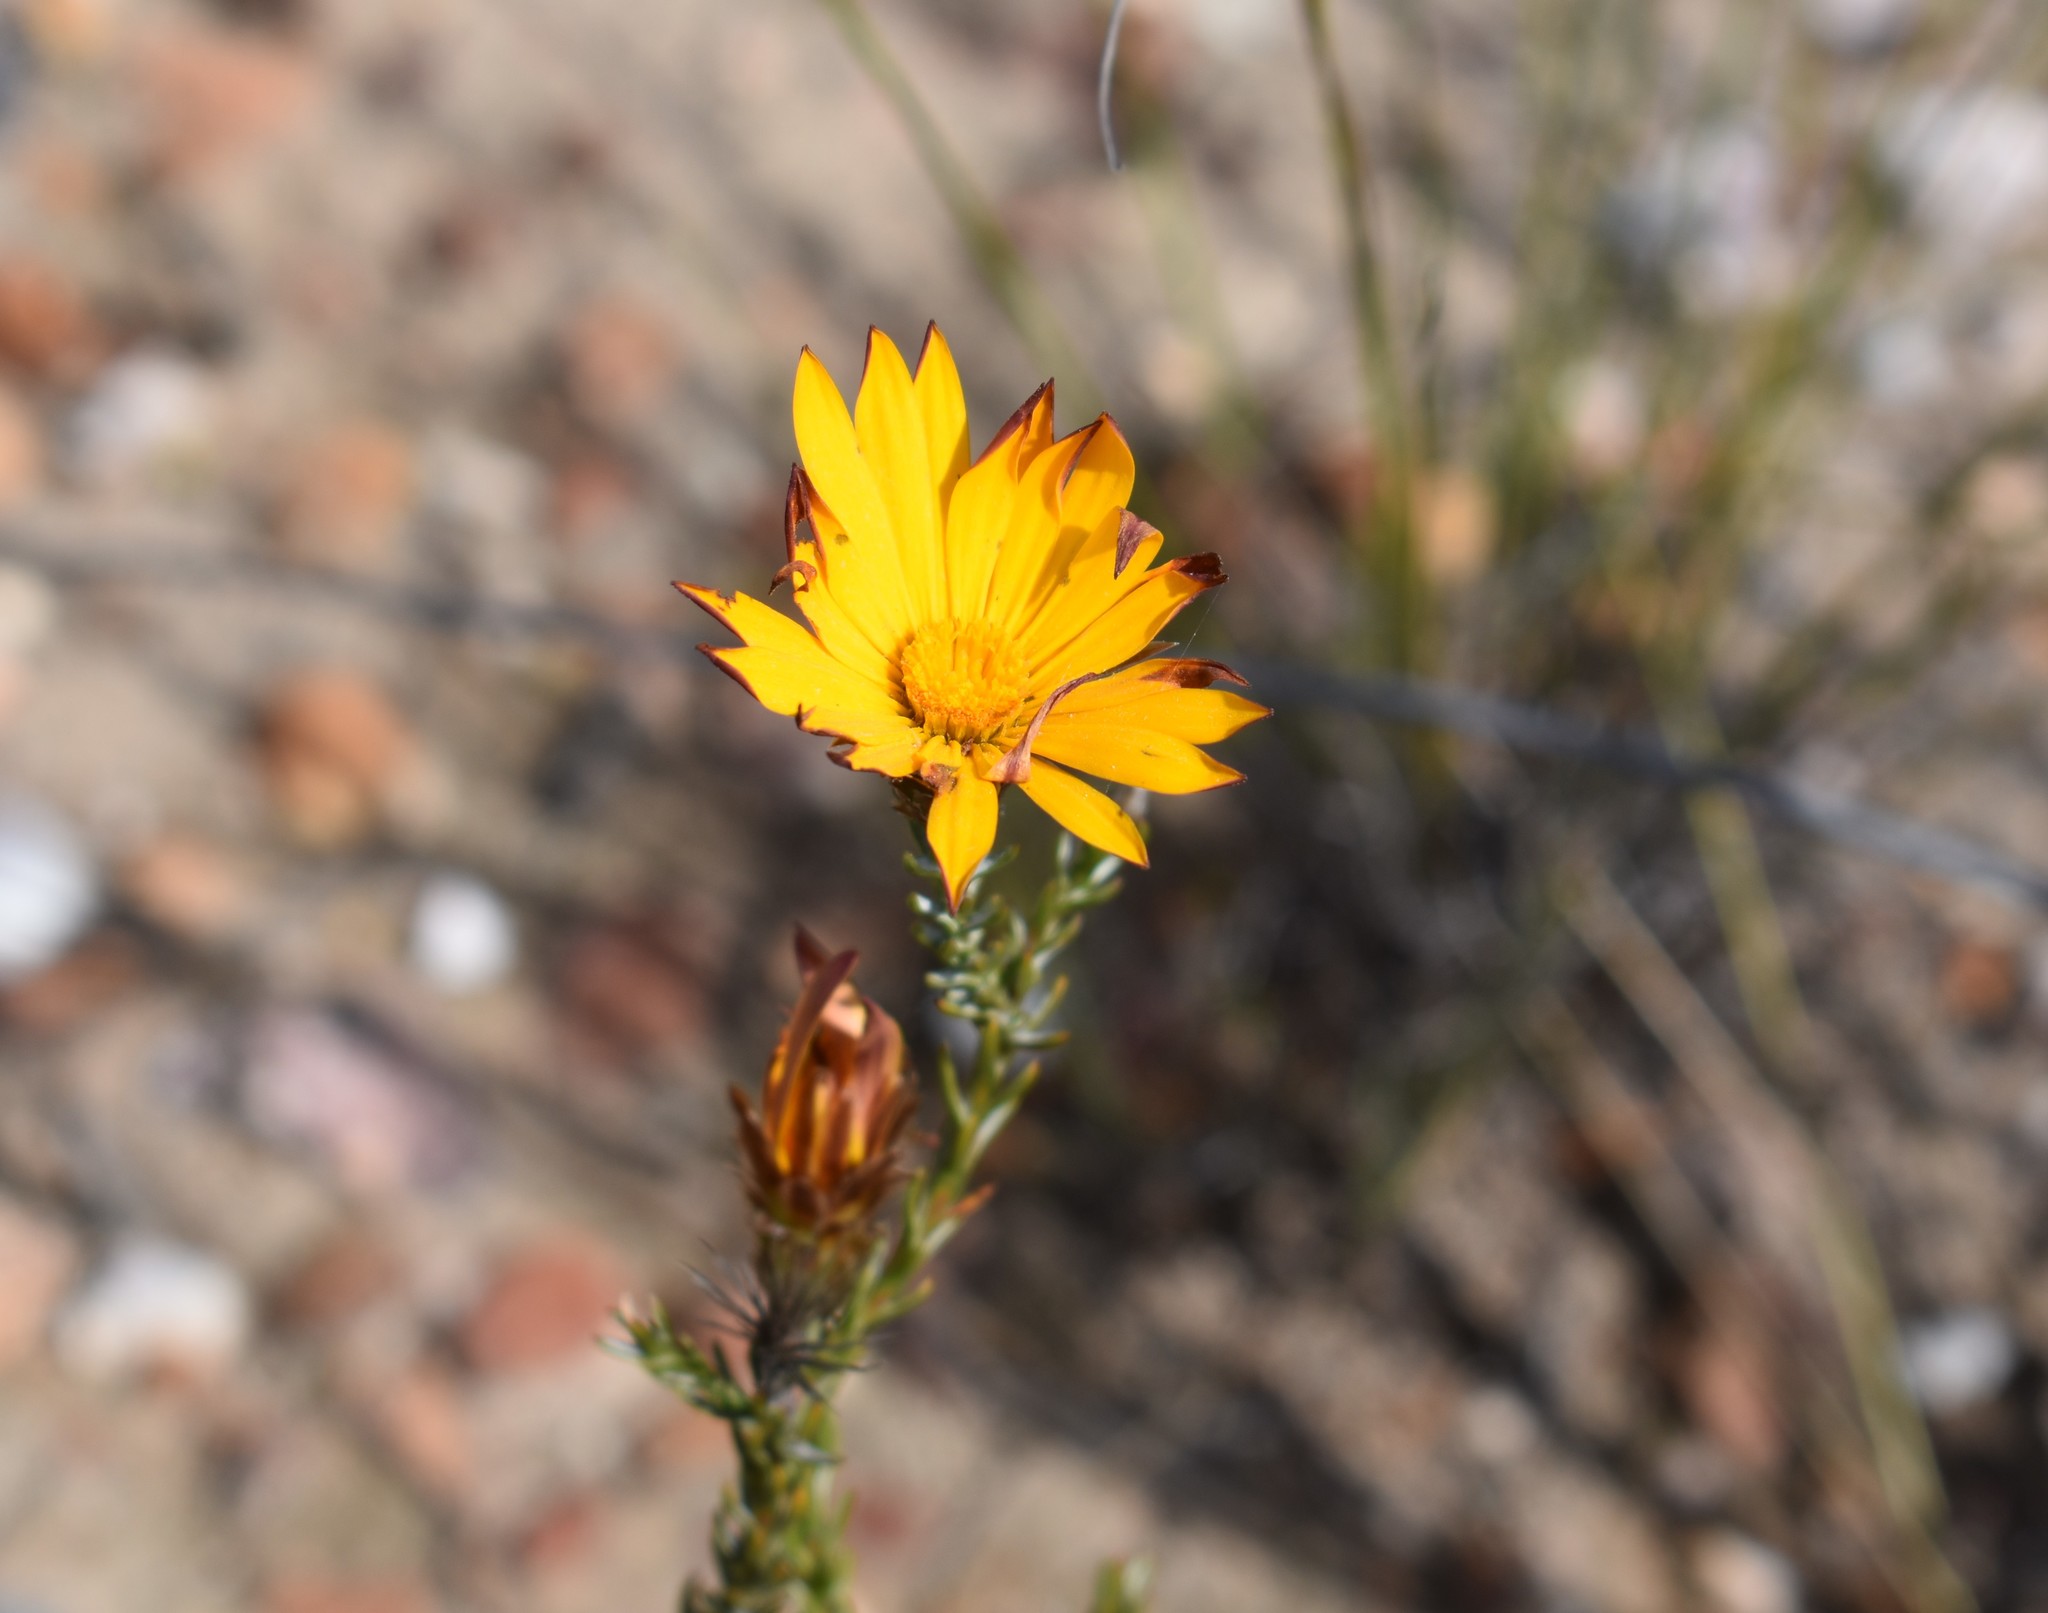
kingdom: Plantae
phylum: Tracheophyta
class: Magnoliopsida
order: Asterales
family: Asteraceae
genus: Oedera
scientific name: Oedera decussata
